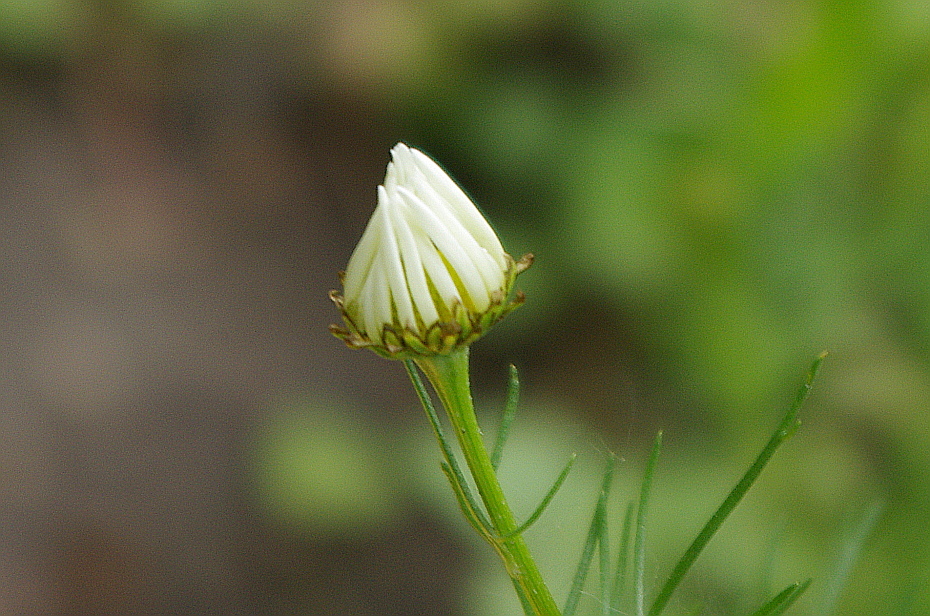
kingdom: Plantae
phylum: Tracheophyta
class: Magnoliopsida
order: Asterales
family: Asteraceae
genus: Tripleurospermum
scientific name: Tripleurospermum inodorum
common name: Scentless mayweed
